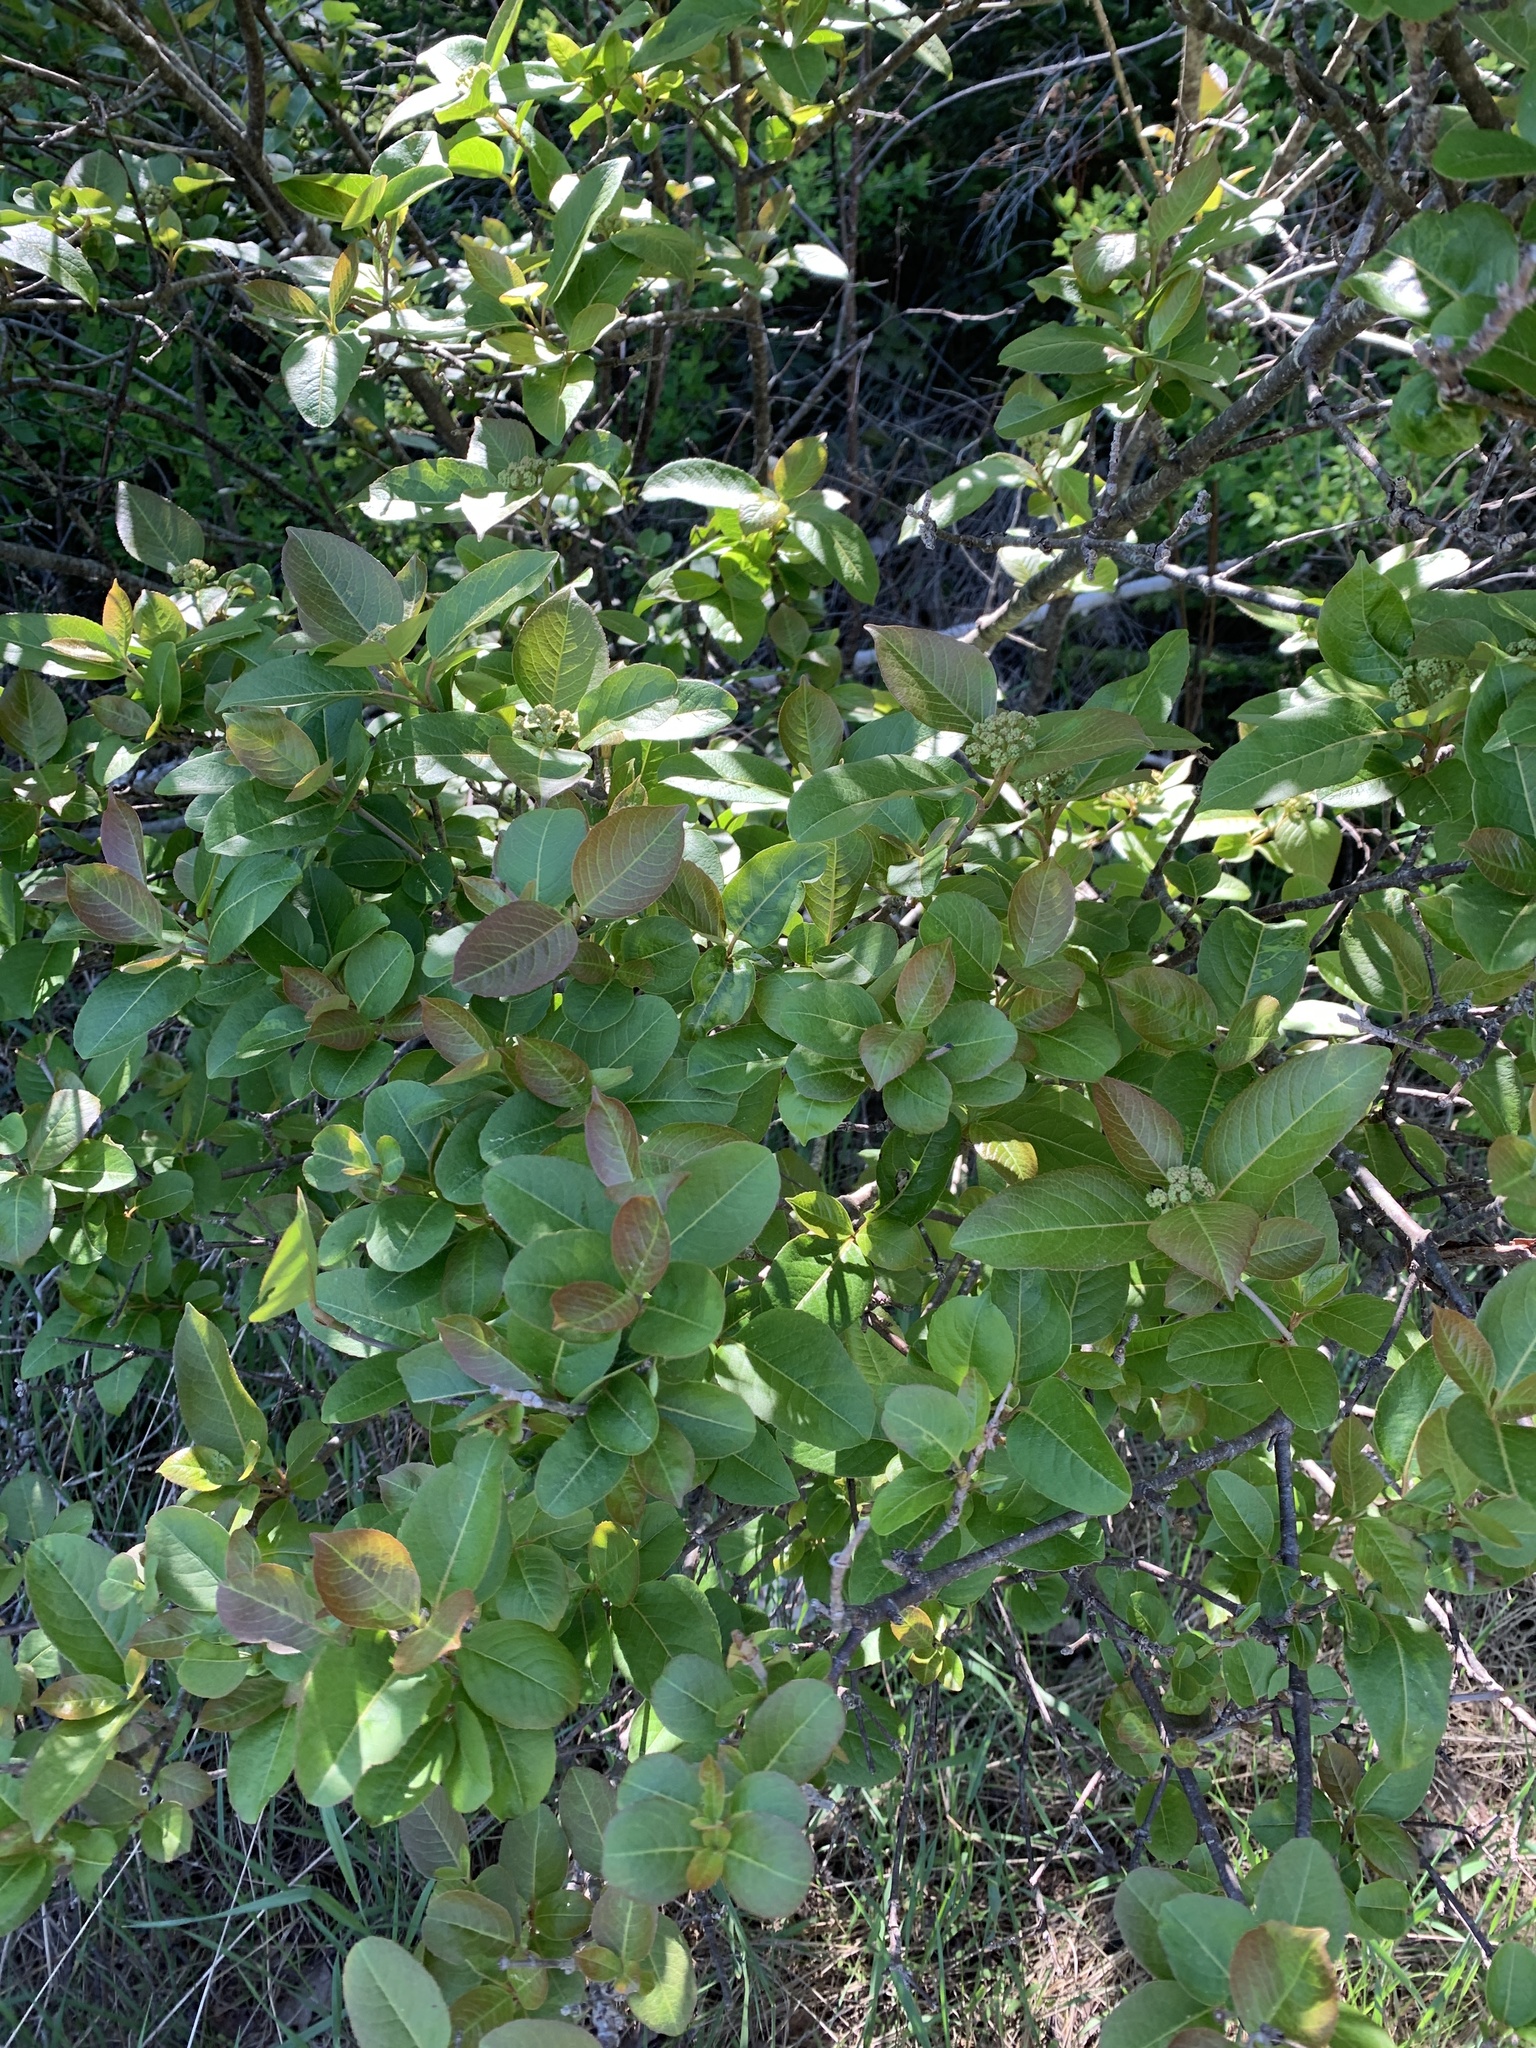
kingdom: Plantae
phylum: Tracheophyta
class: Magnoliopsida
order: Dipsacales
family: Viburnaceae
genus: Viburnum
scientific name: Viburnum cassinoides
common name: Swamp haw
